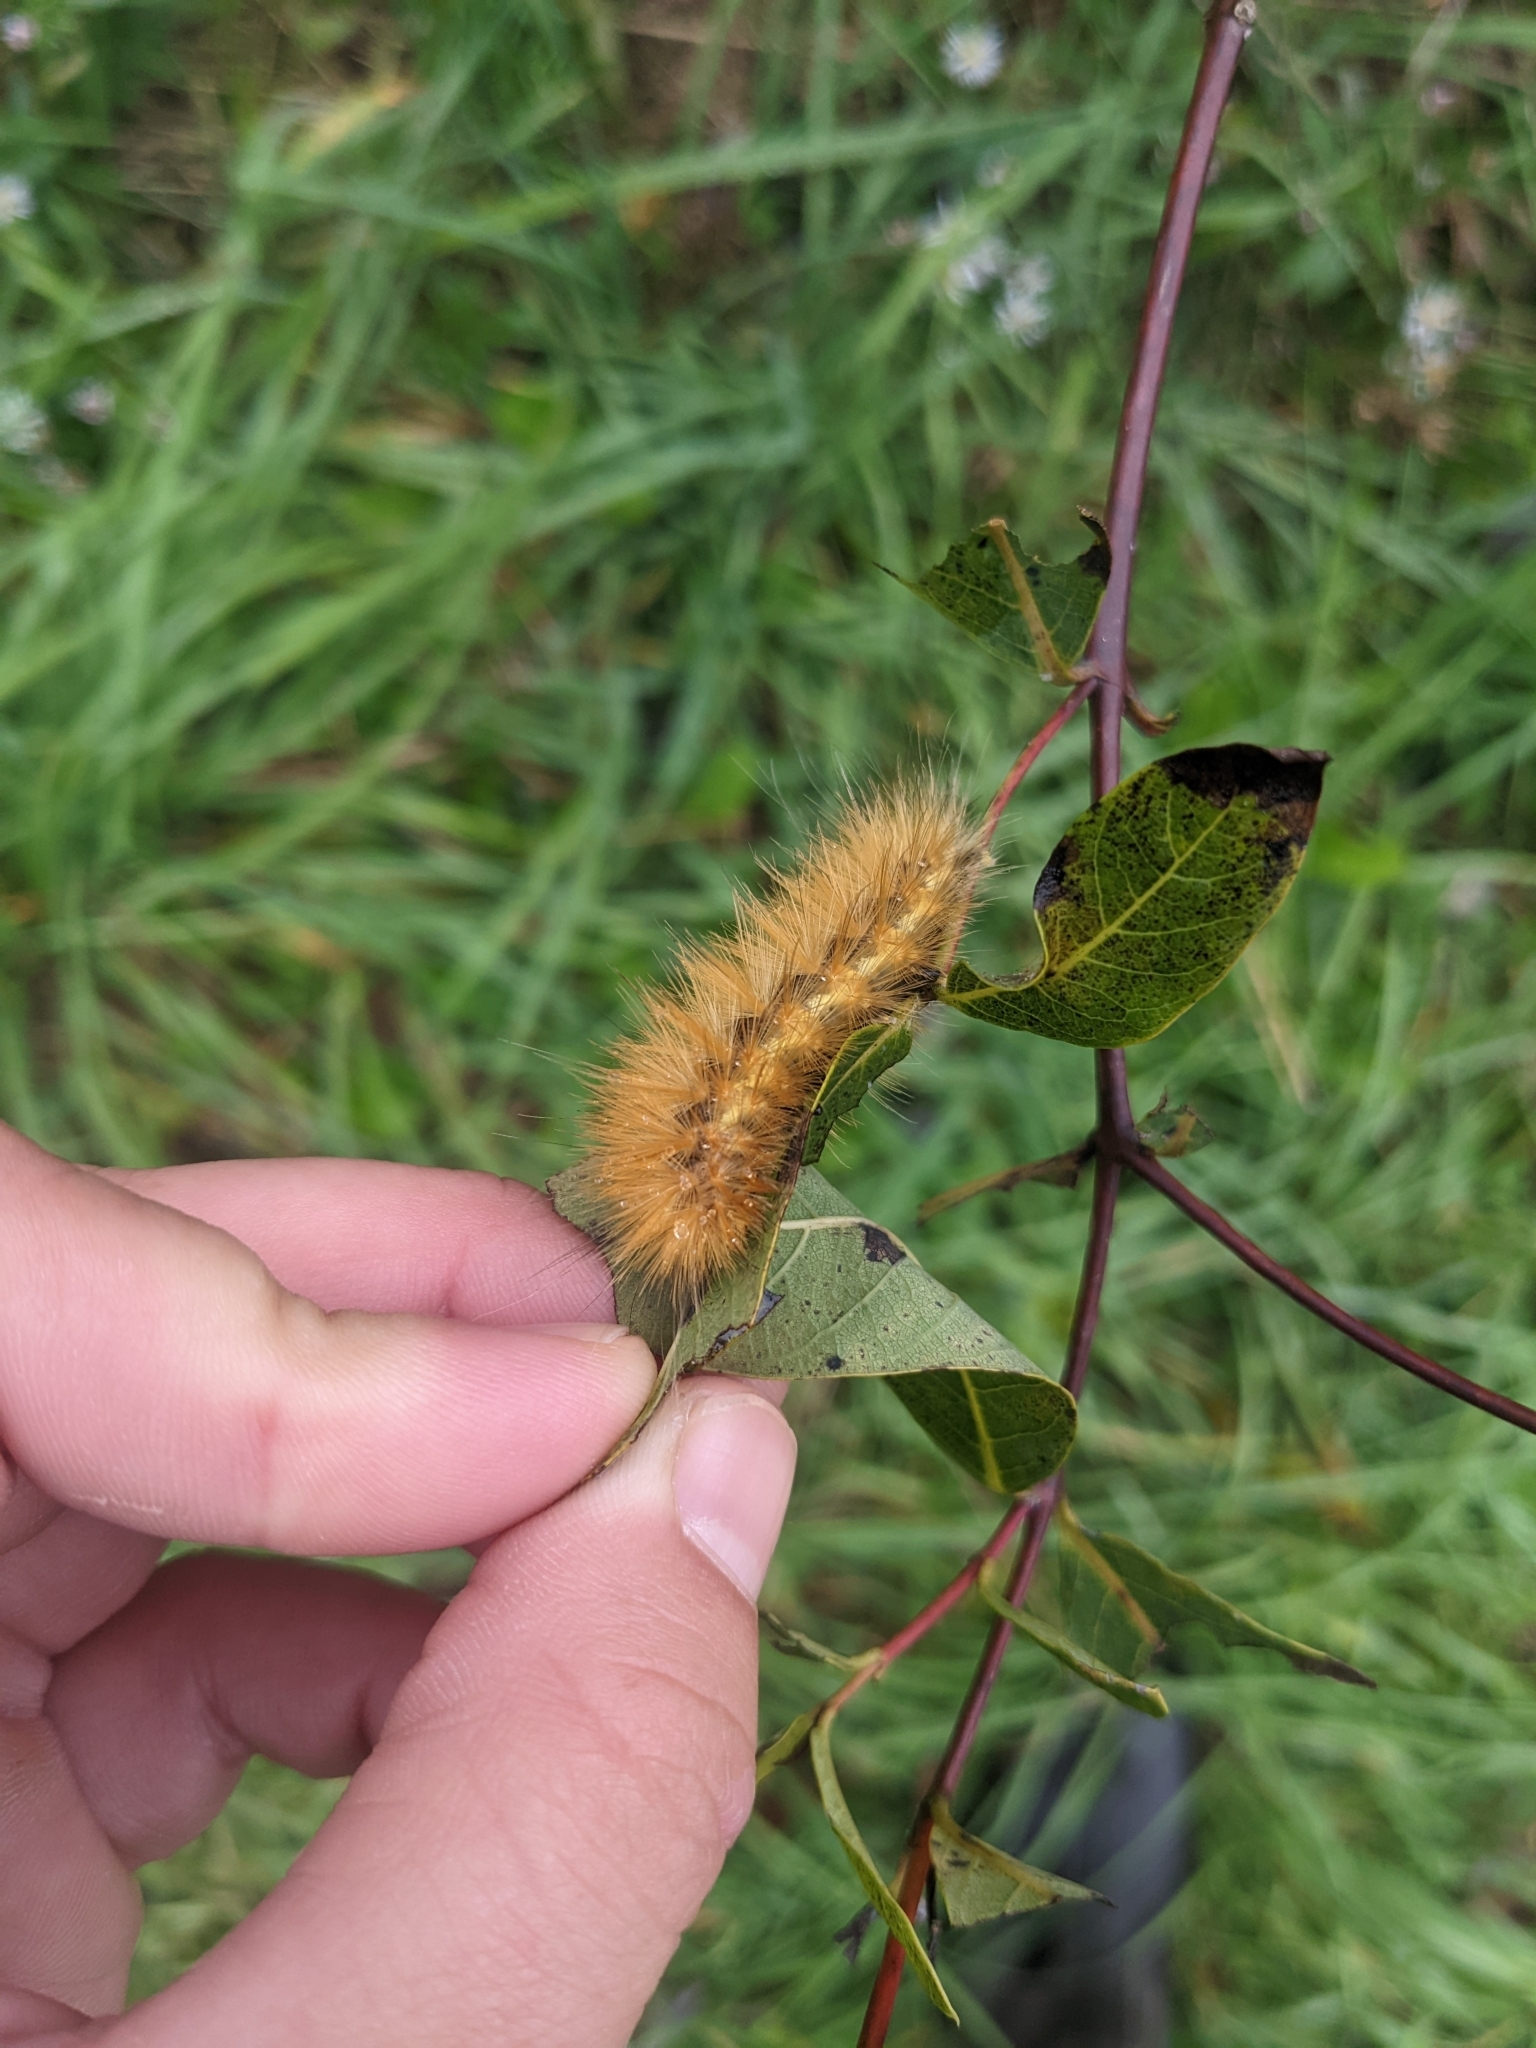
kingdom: Animalia
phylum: Arthropoda
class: Insecta
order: Lepidoptera
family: Erebidae
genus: Spilosoma
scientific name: Spilosoma virginica
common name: Virginia tiger moth
